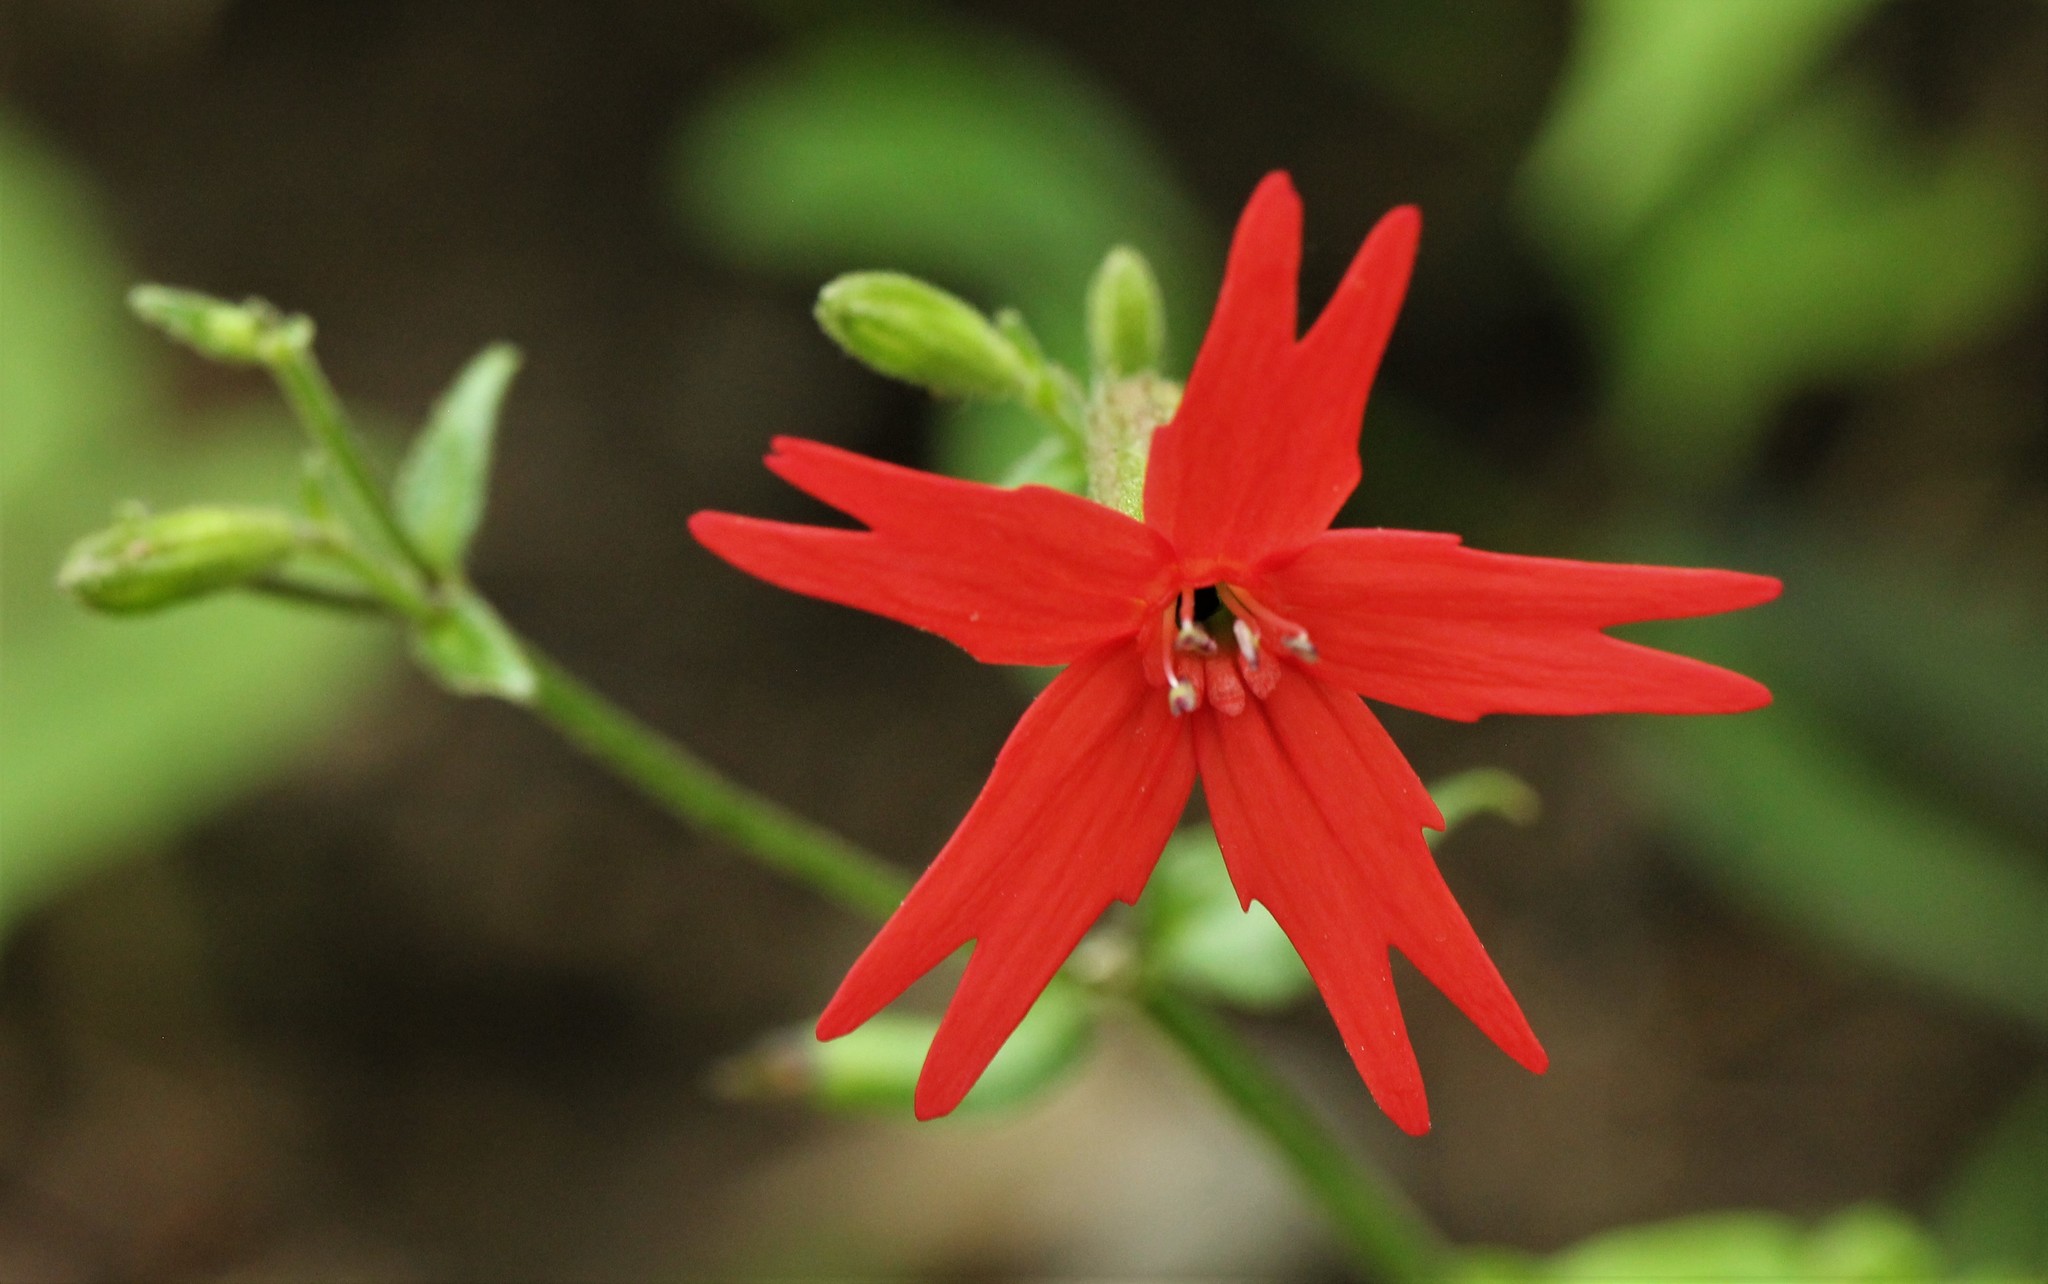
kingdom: Plantae
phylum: Tracheophyta
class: Magnoliopsida
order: Caryophyllales
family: Caryophyllaceae
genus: Silene
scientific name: Silene virginica
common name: Fire-pink
